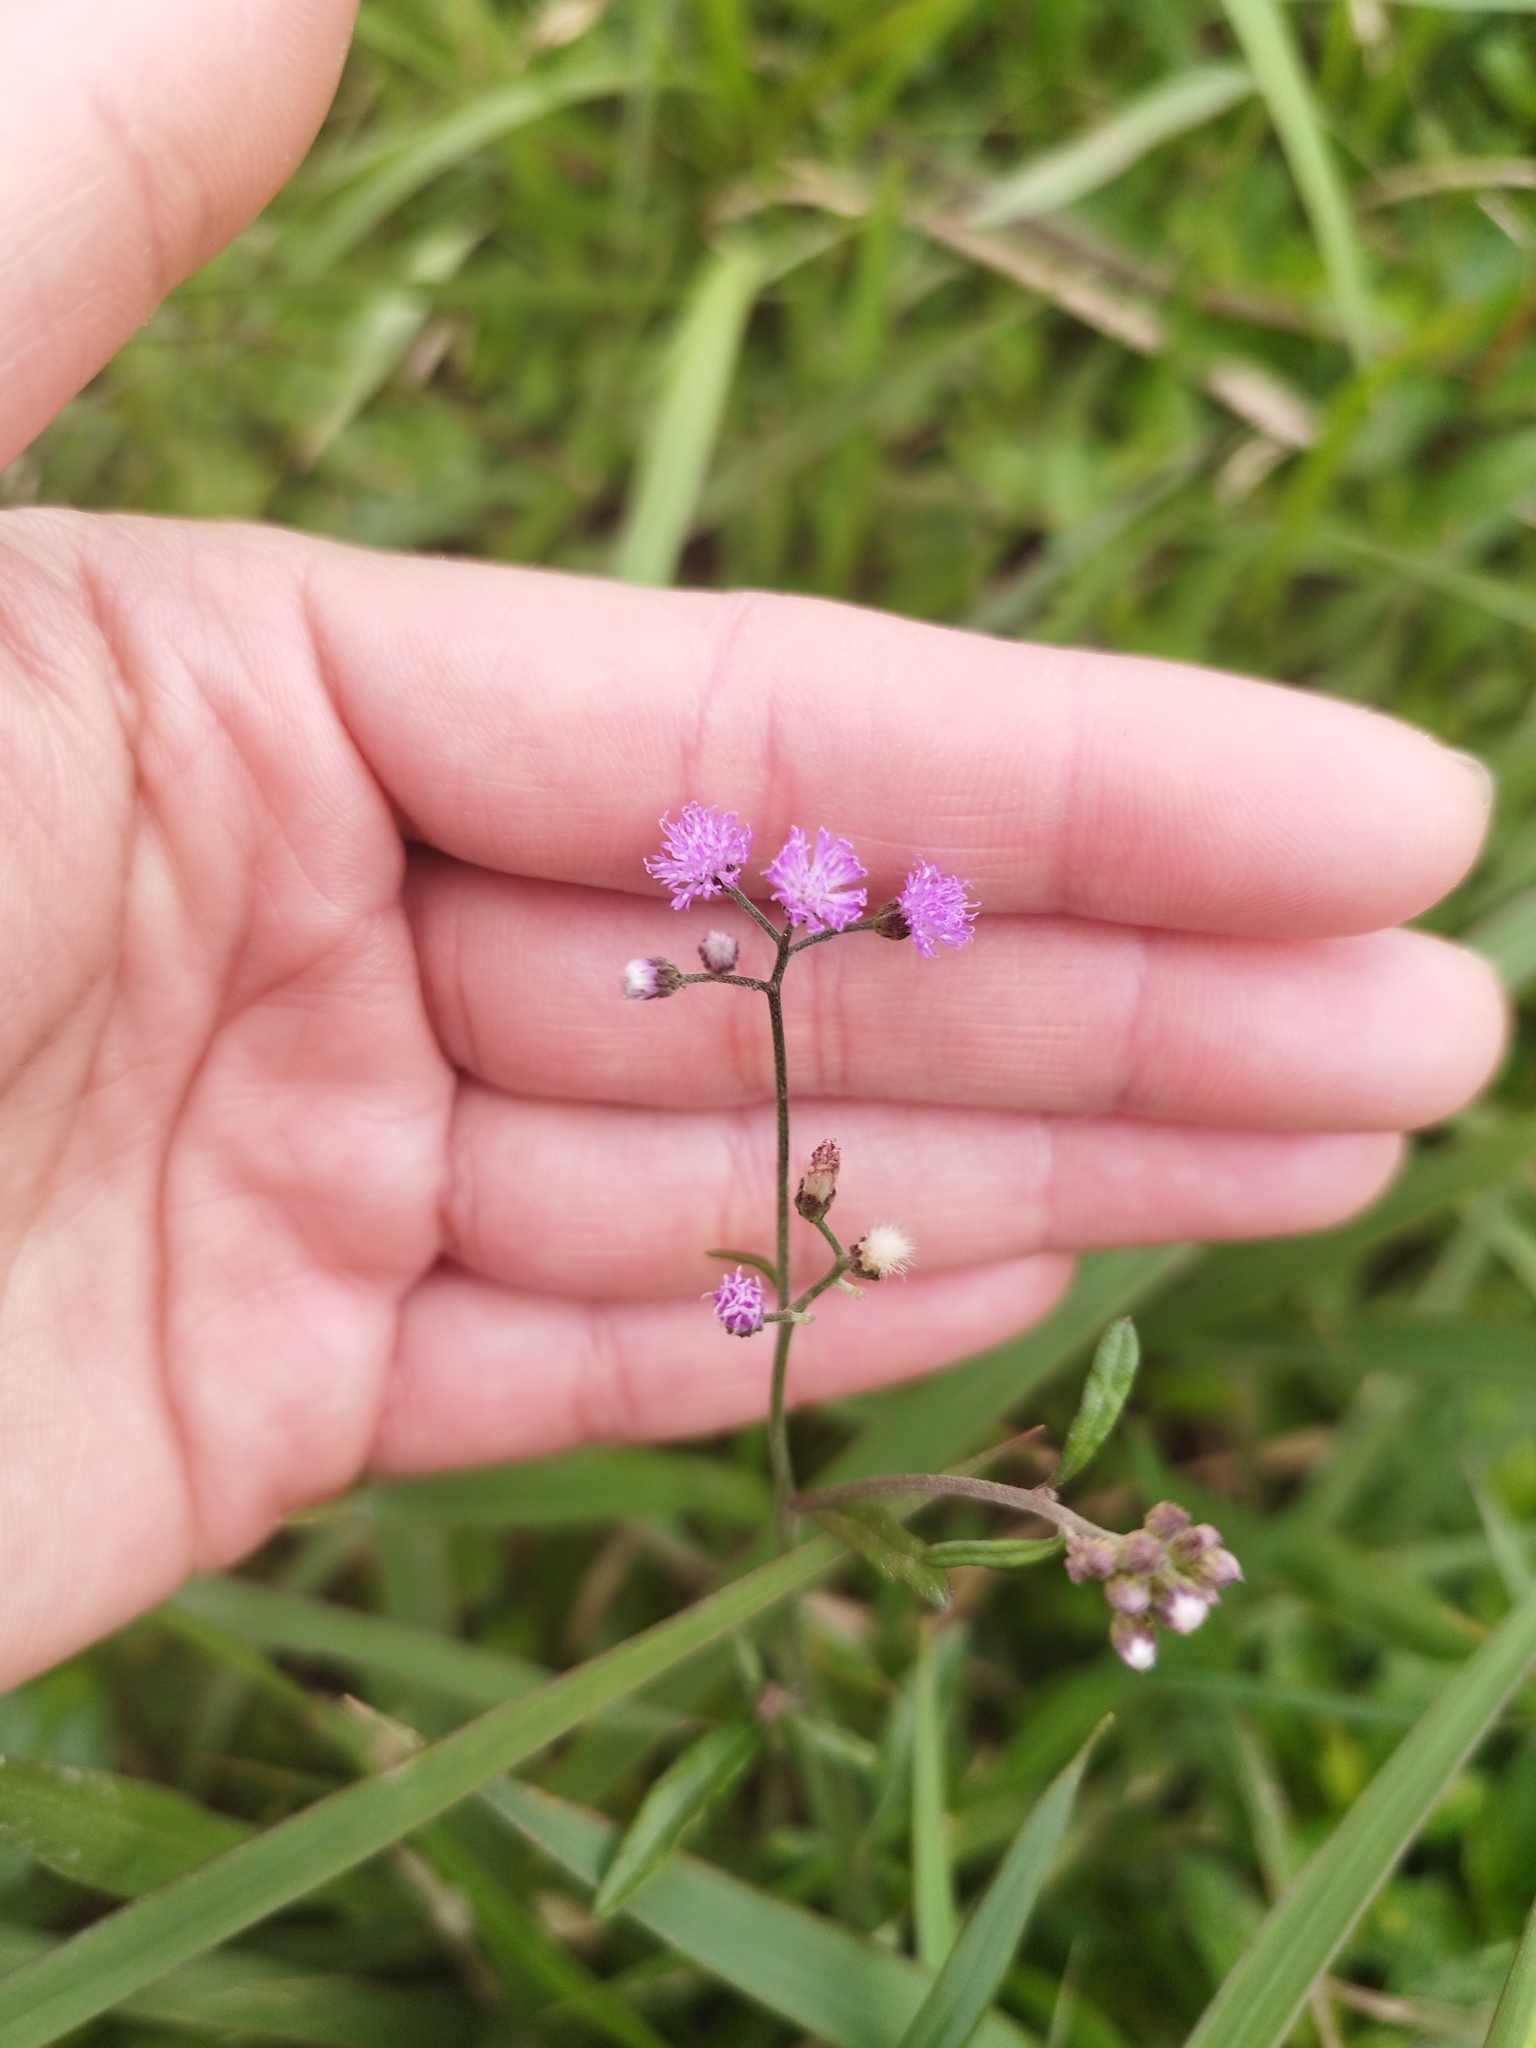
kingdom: Plantae
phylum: Tracheophyta
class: Magnoliopsida
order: Asterales
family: Asteraceae
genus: Cyanthillium
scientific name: Cyanthillium cinereum
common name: Little ironweed
